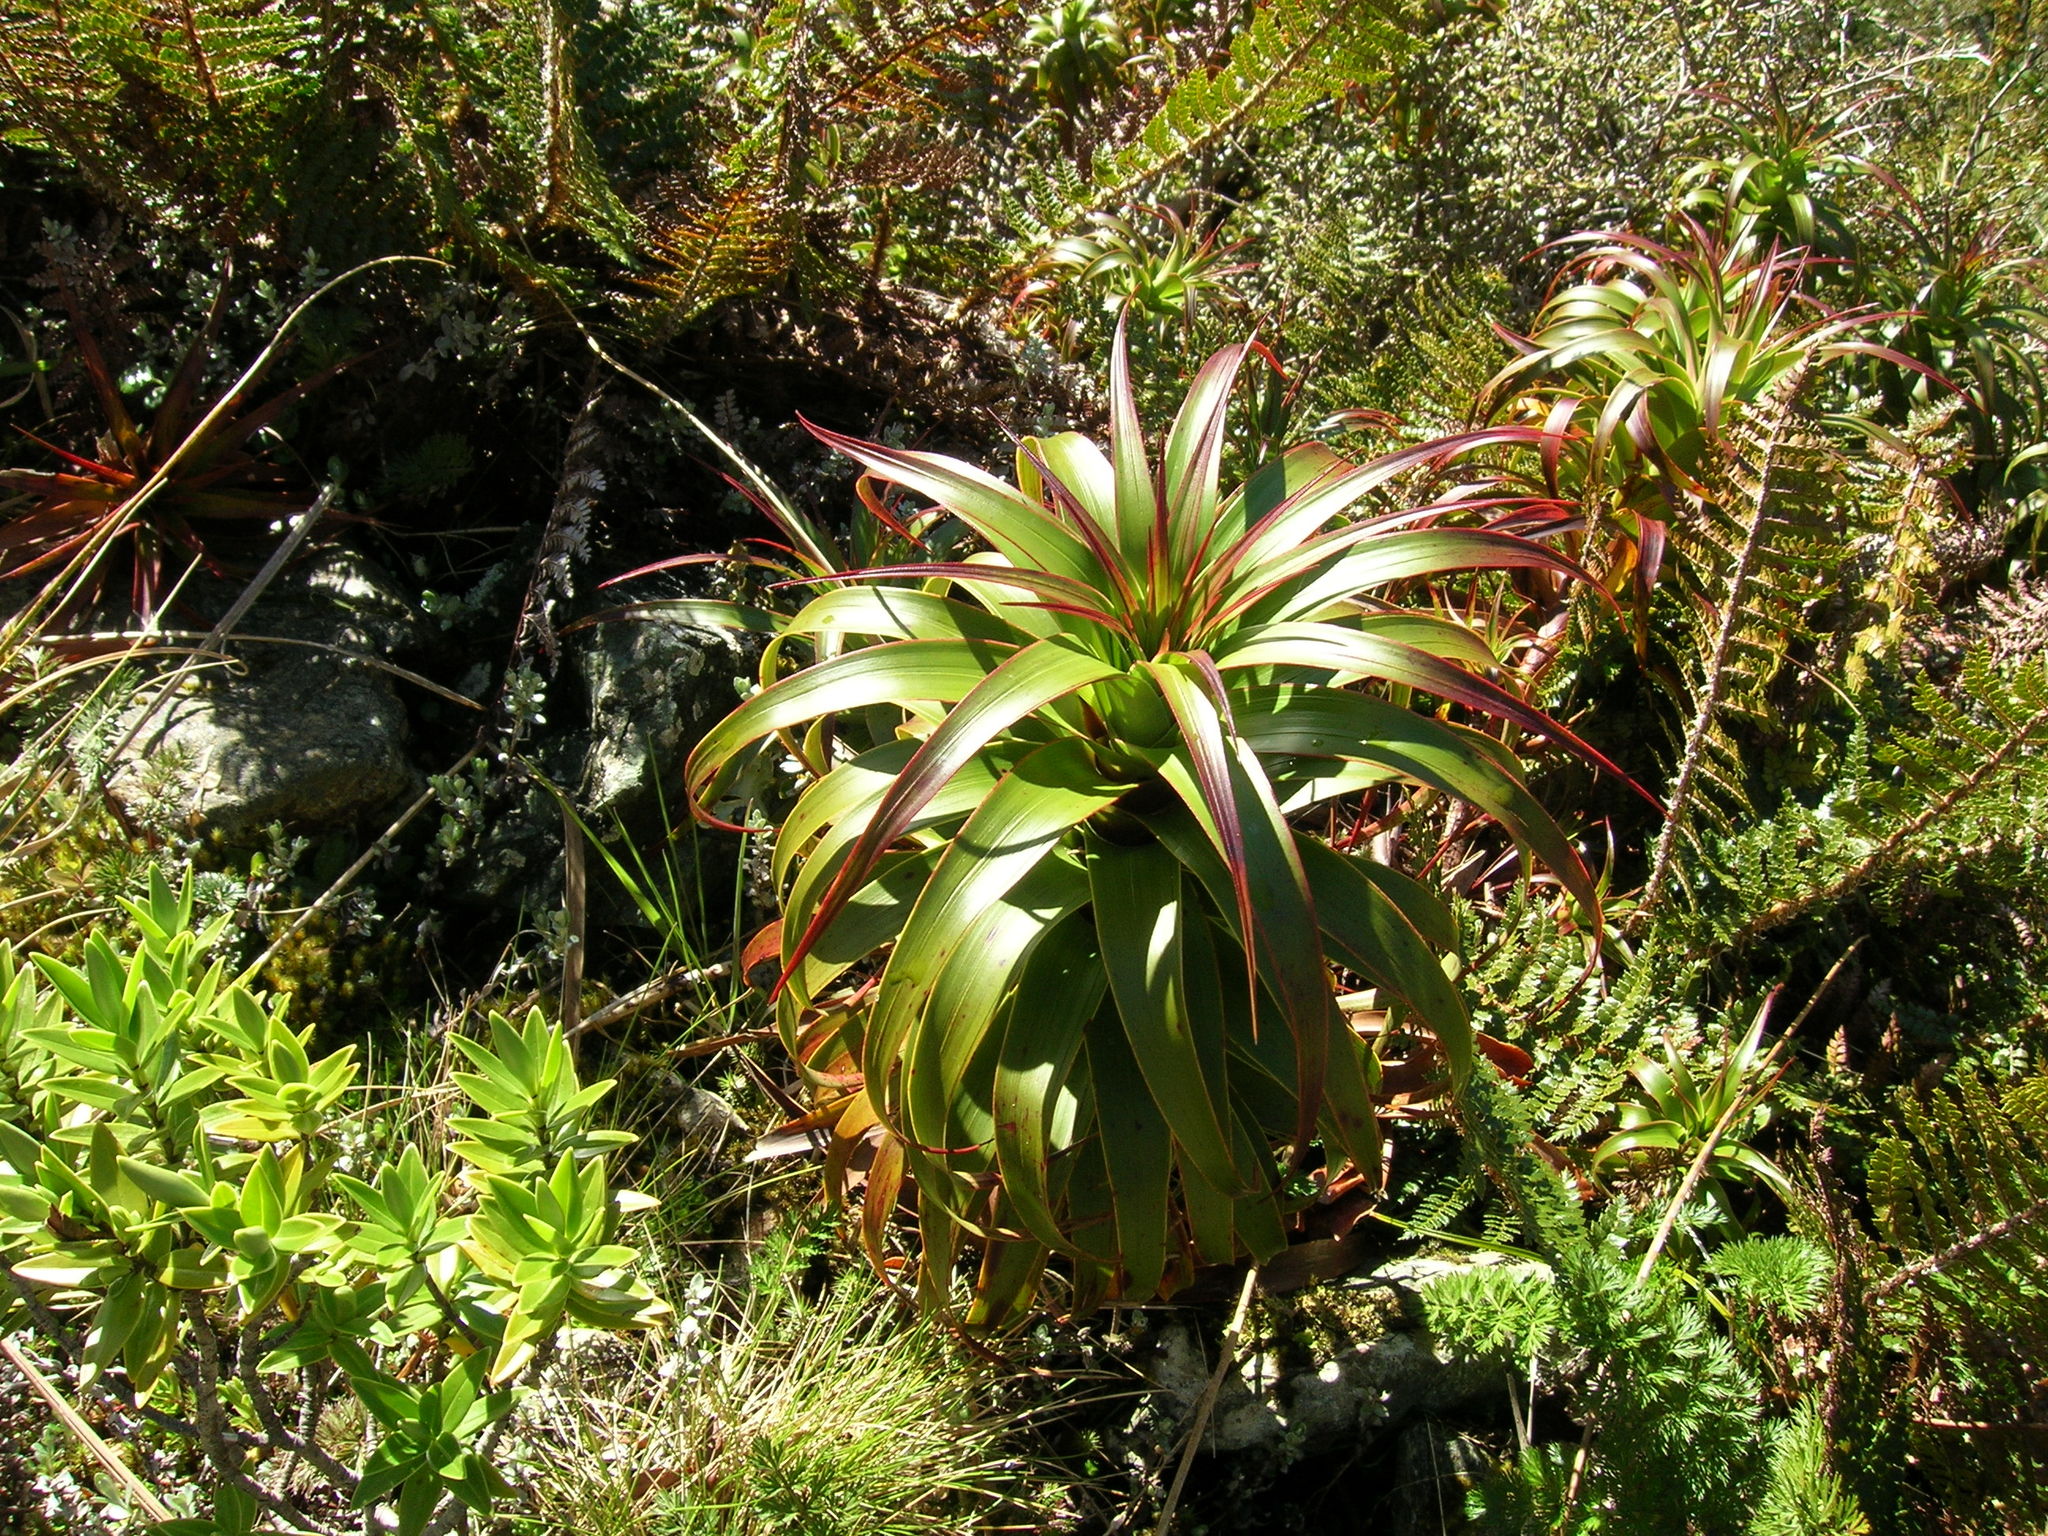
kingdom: Plantae
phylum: Tracheophyta
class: Magnoliopsida
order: Ericales
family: Ericaceae
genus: Dracophyllum
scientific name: Dracophyllum menziesii
